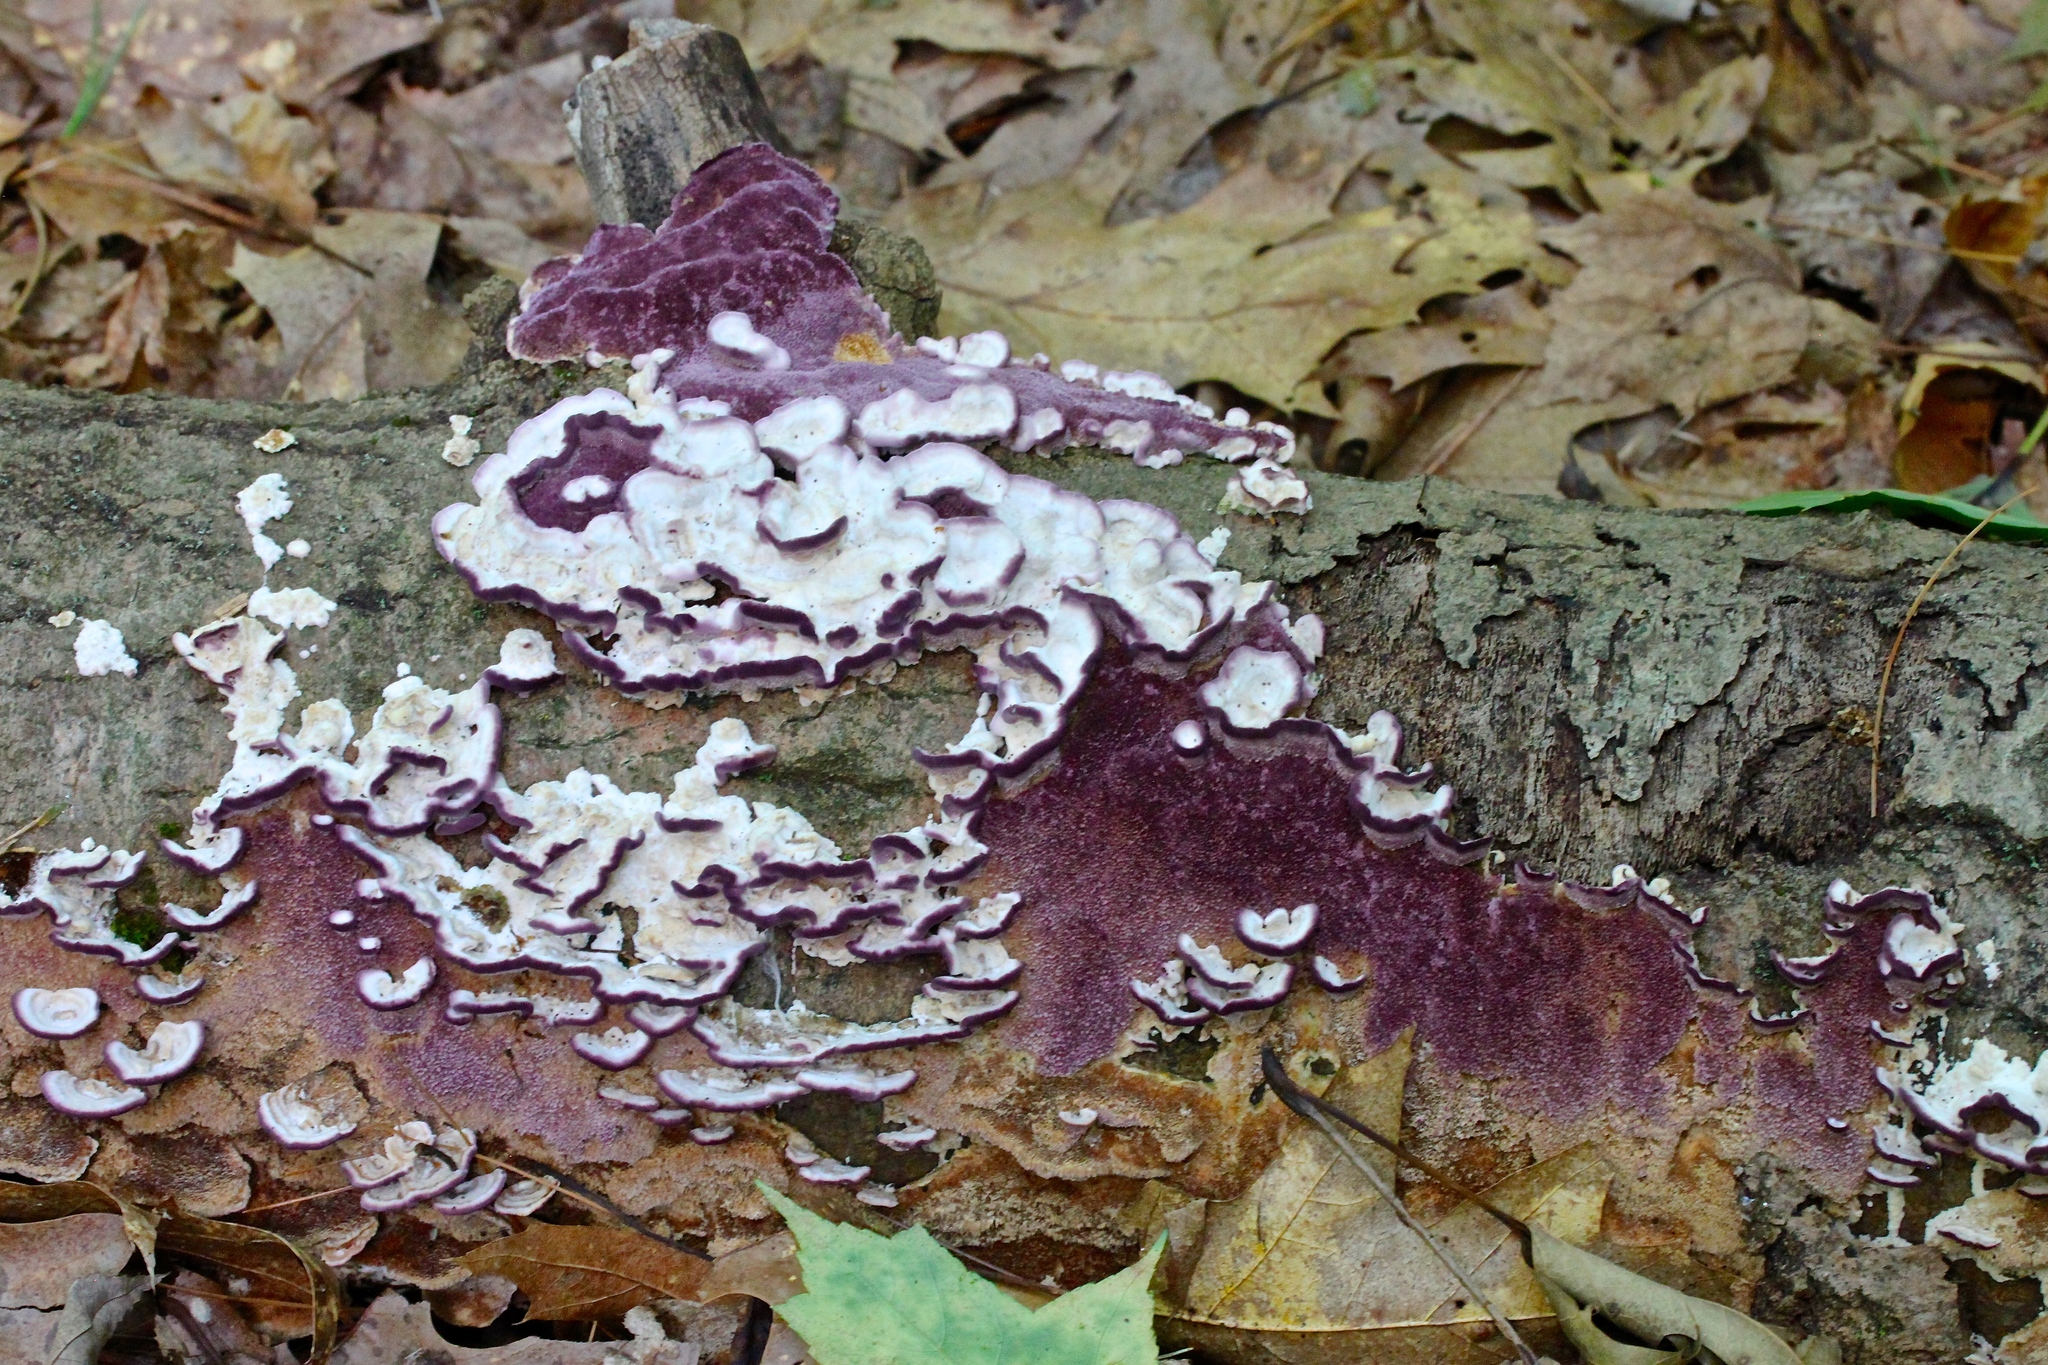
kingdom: Fungi
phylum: Basidiomycota
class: Agaricomycetes
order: Hymenochaetales
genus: Trichaptum
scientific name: Trichaptum biforme
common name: Violet-toothed polypore
